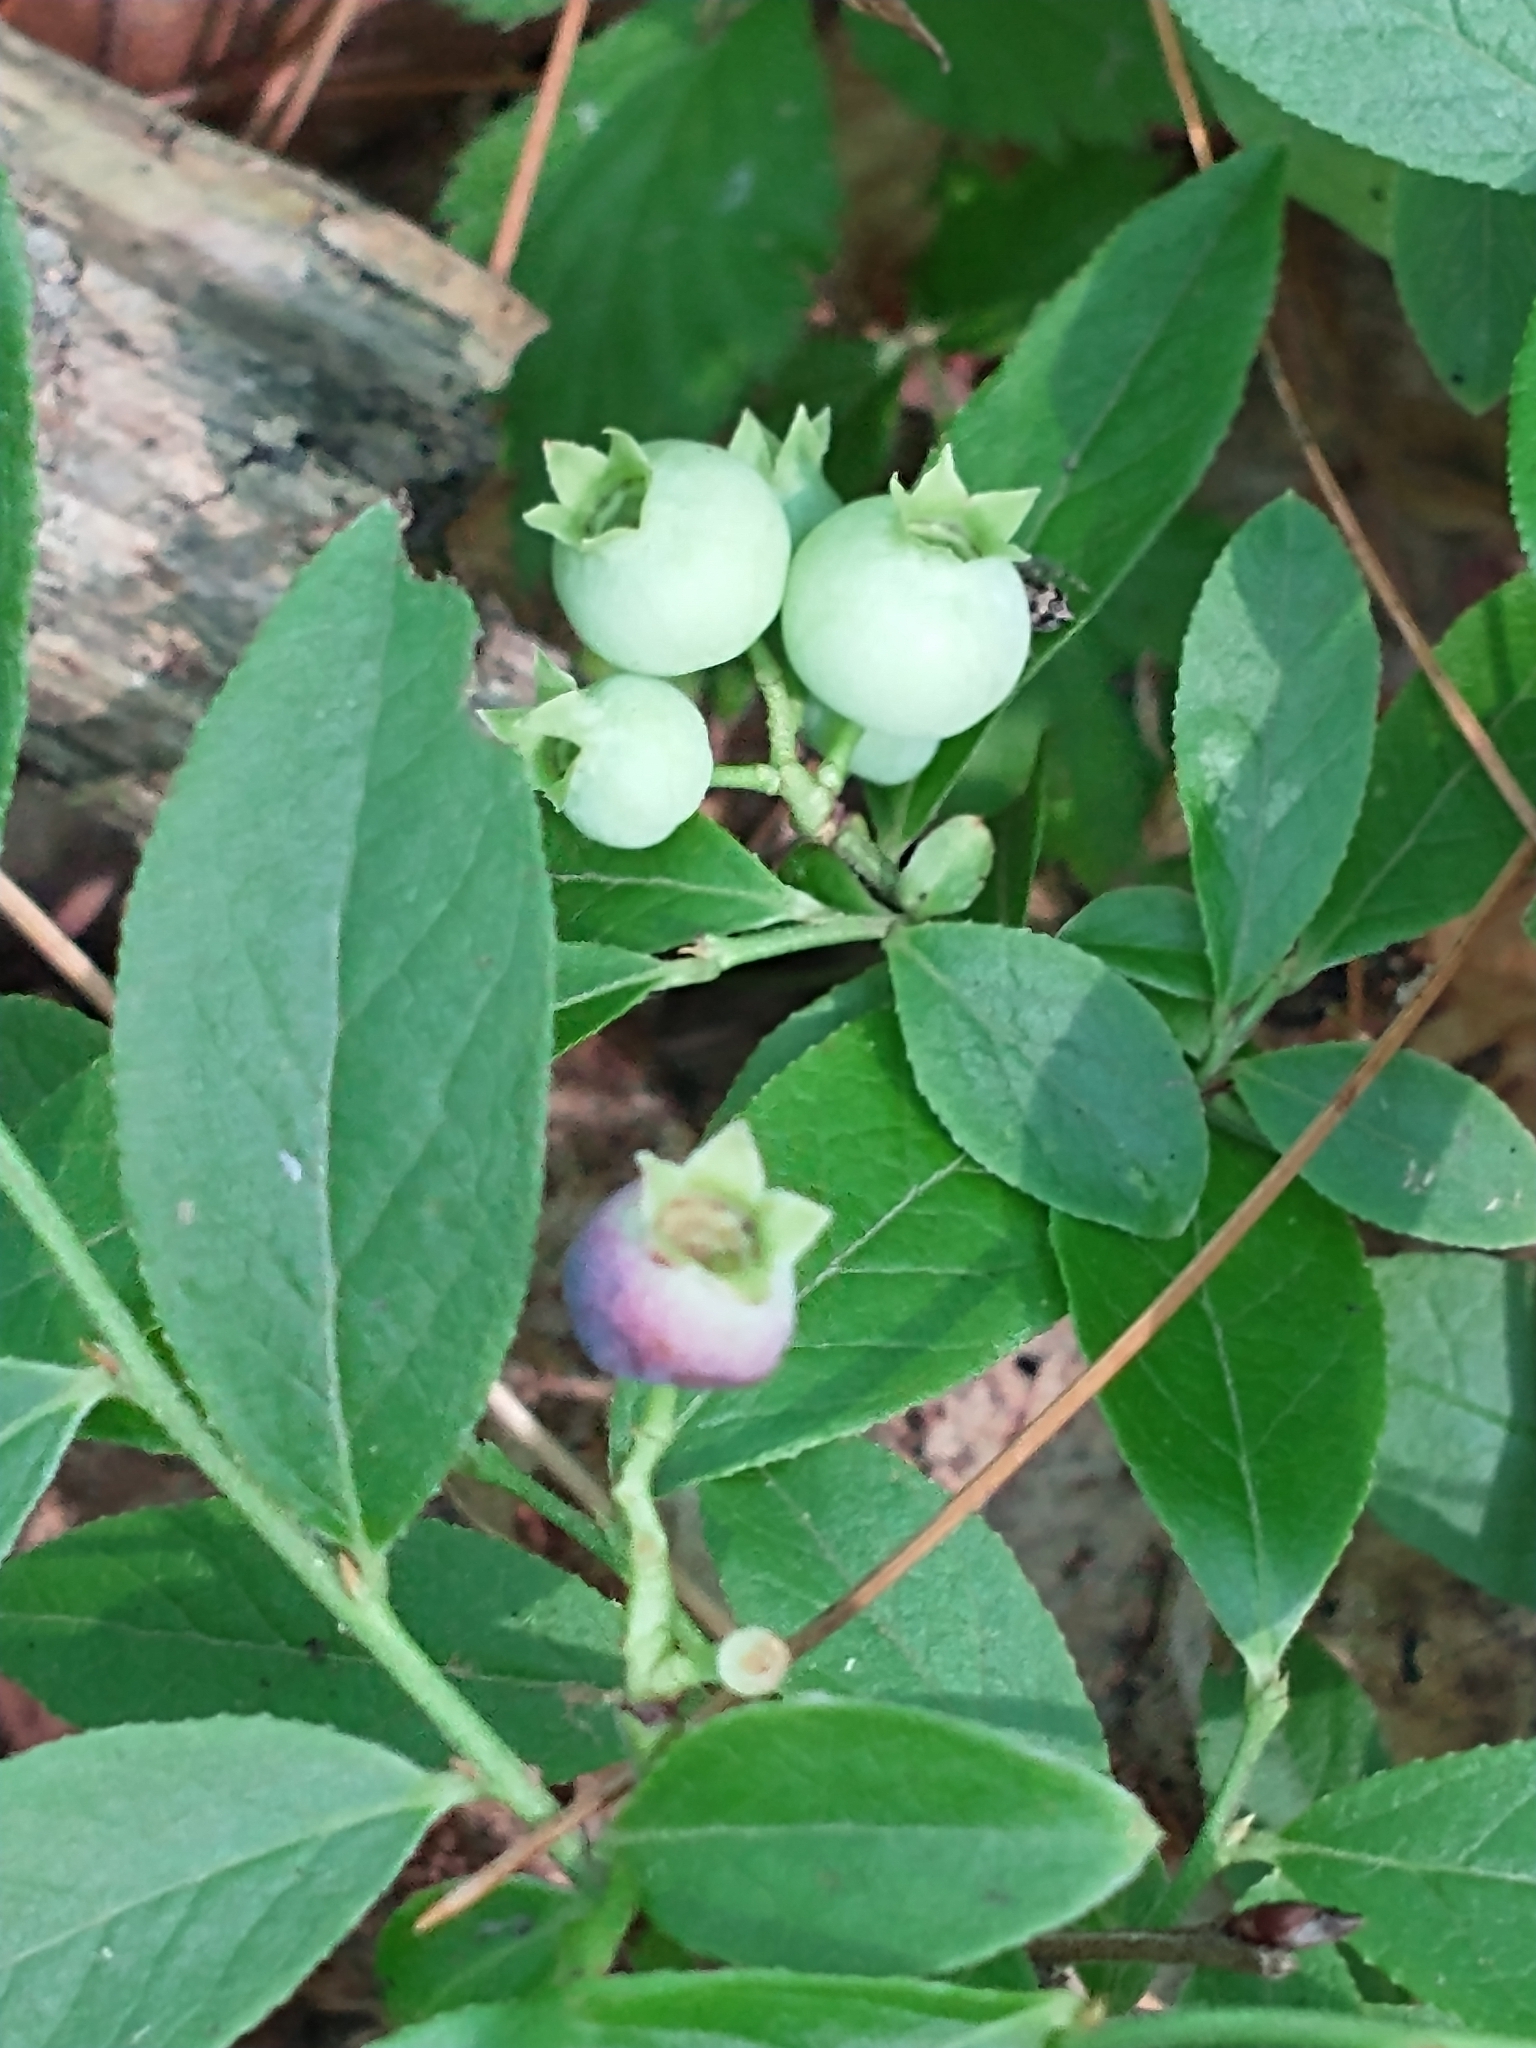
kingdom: Plantae
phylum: Tracheophyta
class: Magnoliopsida
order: Ericales
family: Ericaceae
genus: Vaccinium
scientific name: Vaccinium angustifolium
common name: Early lowbush blueberry
